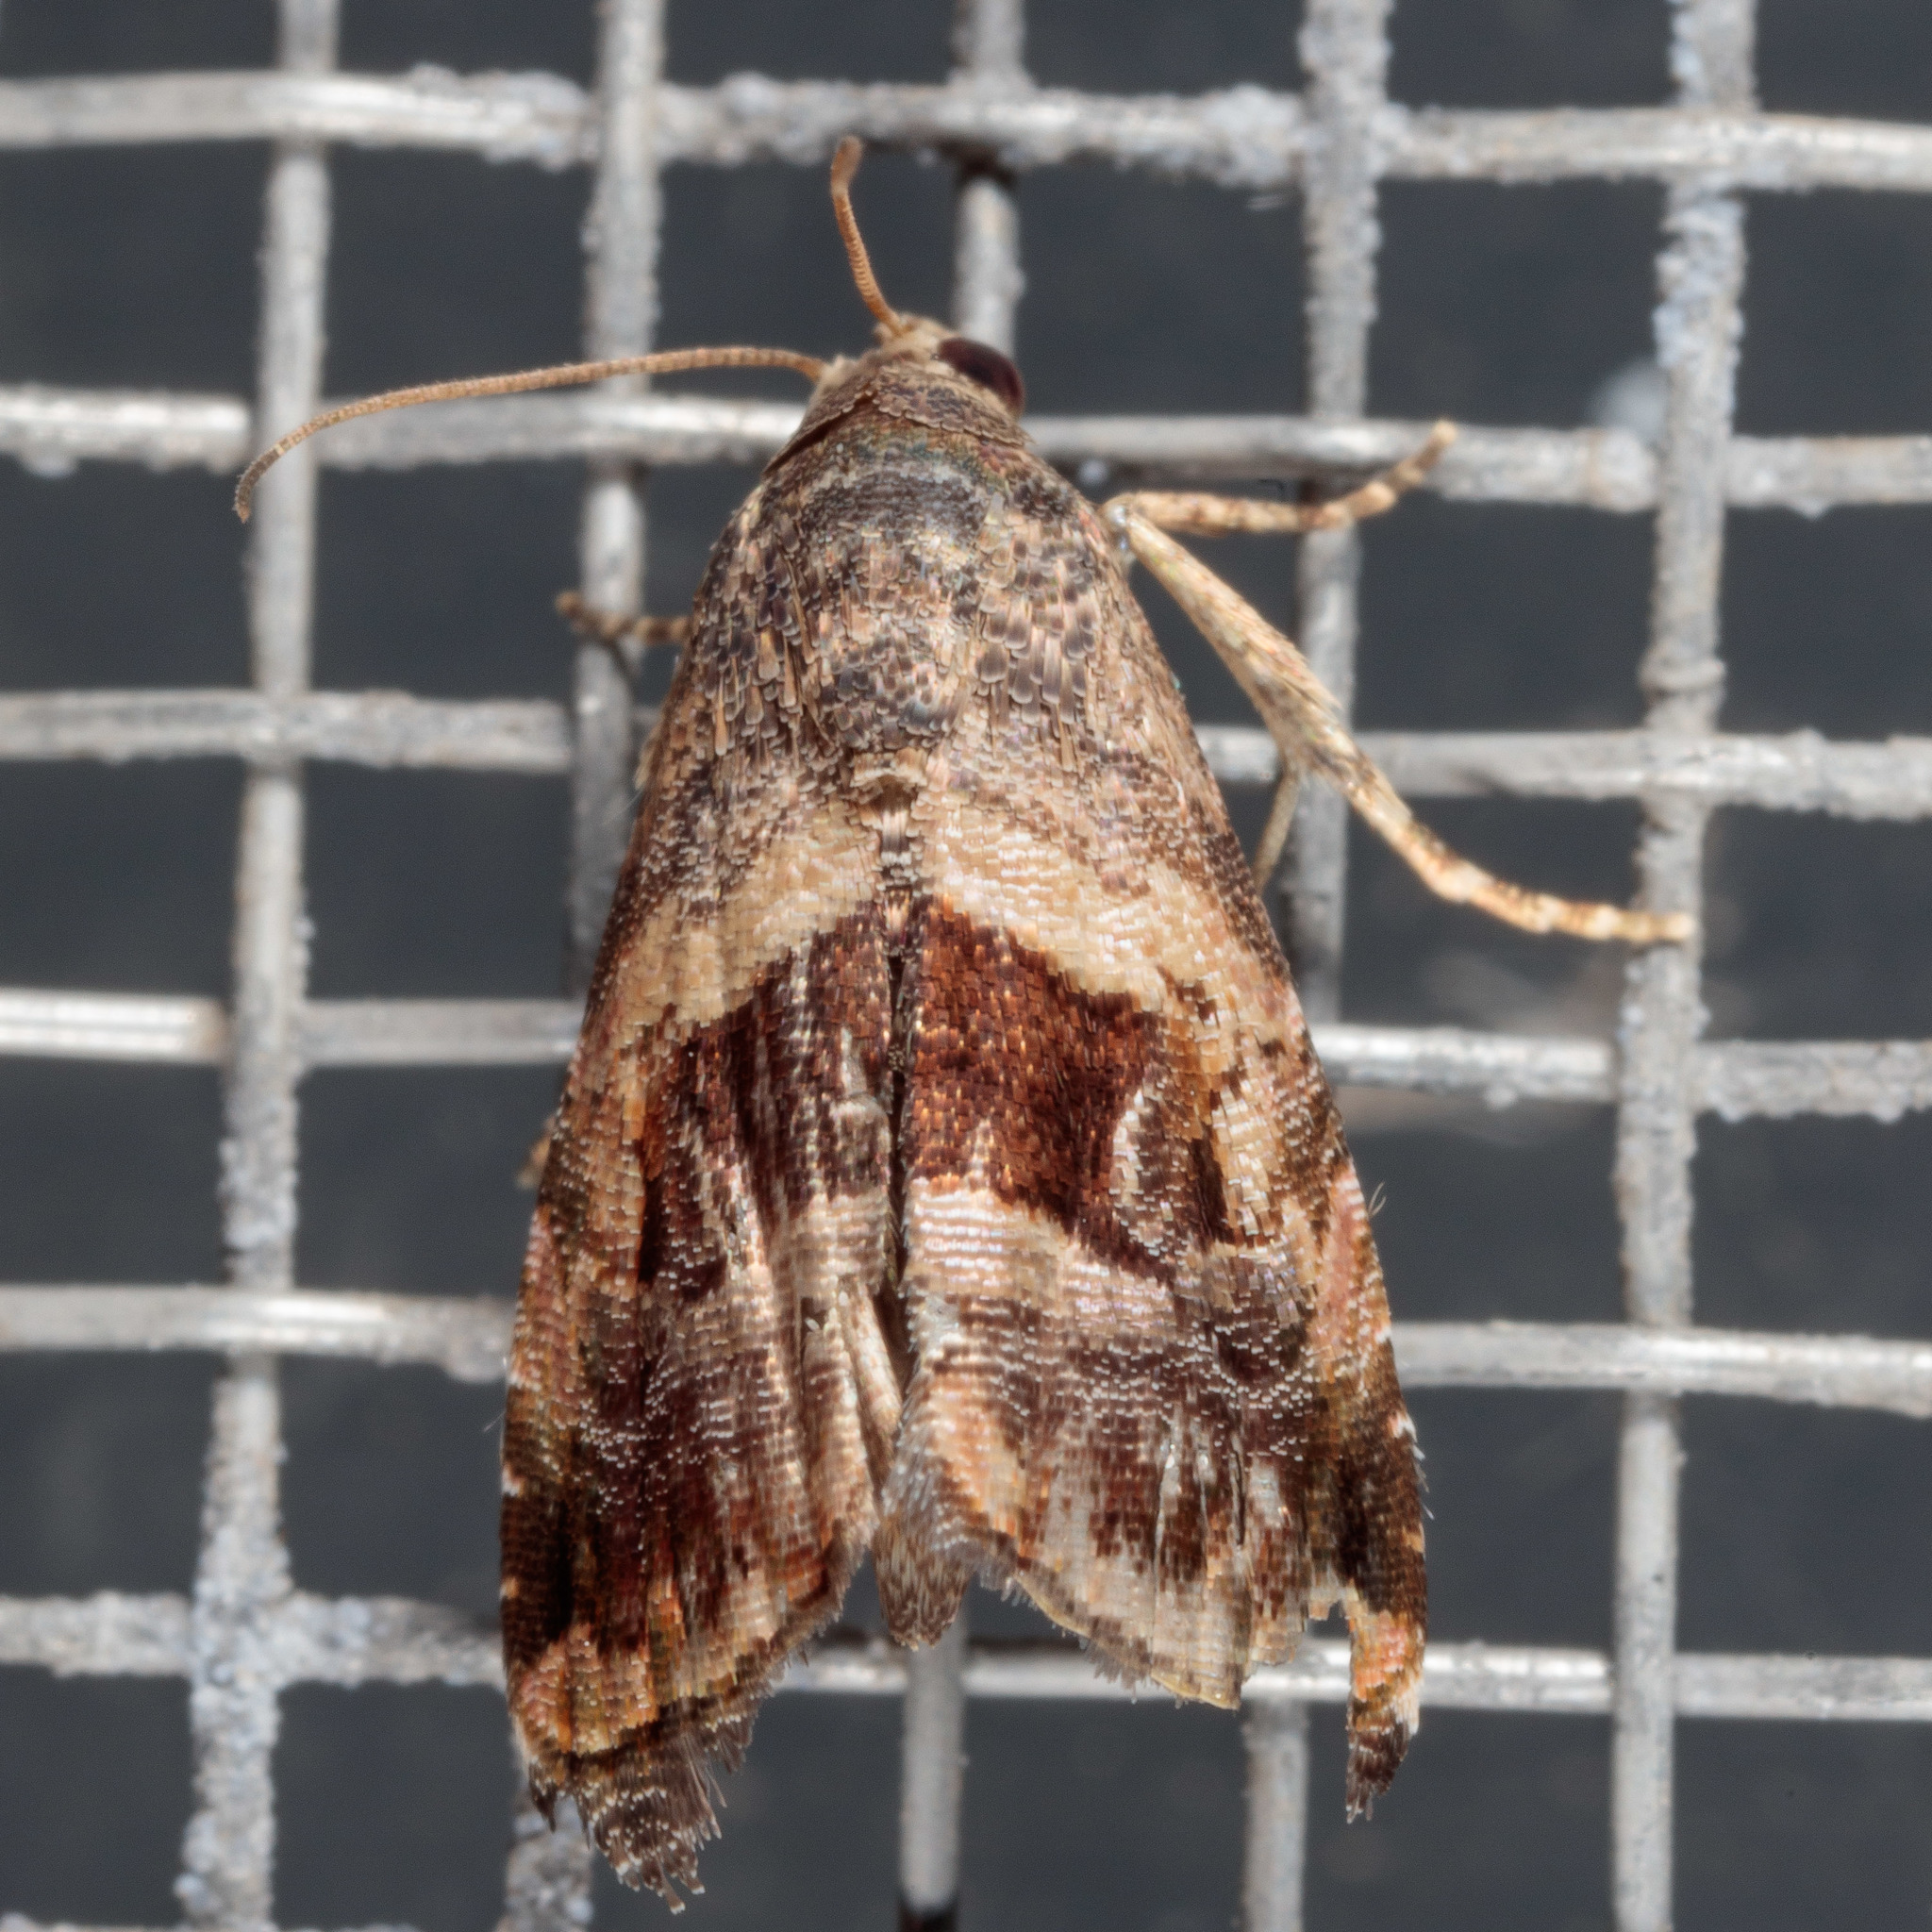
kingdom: Animalia
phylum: Arthropoda
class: Insecta
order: Lepidoptera
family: Noctuidae
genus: Tripudia
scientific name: Tripudia quadrifera
